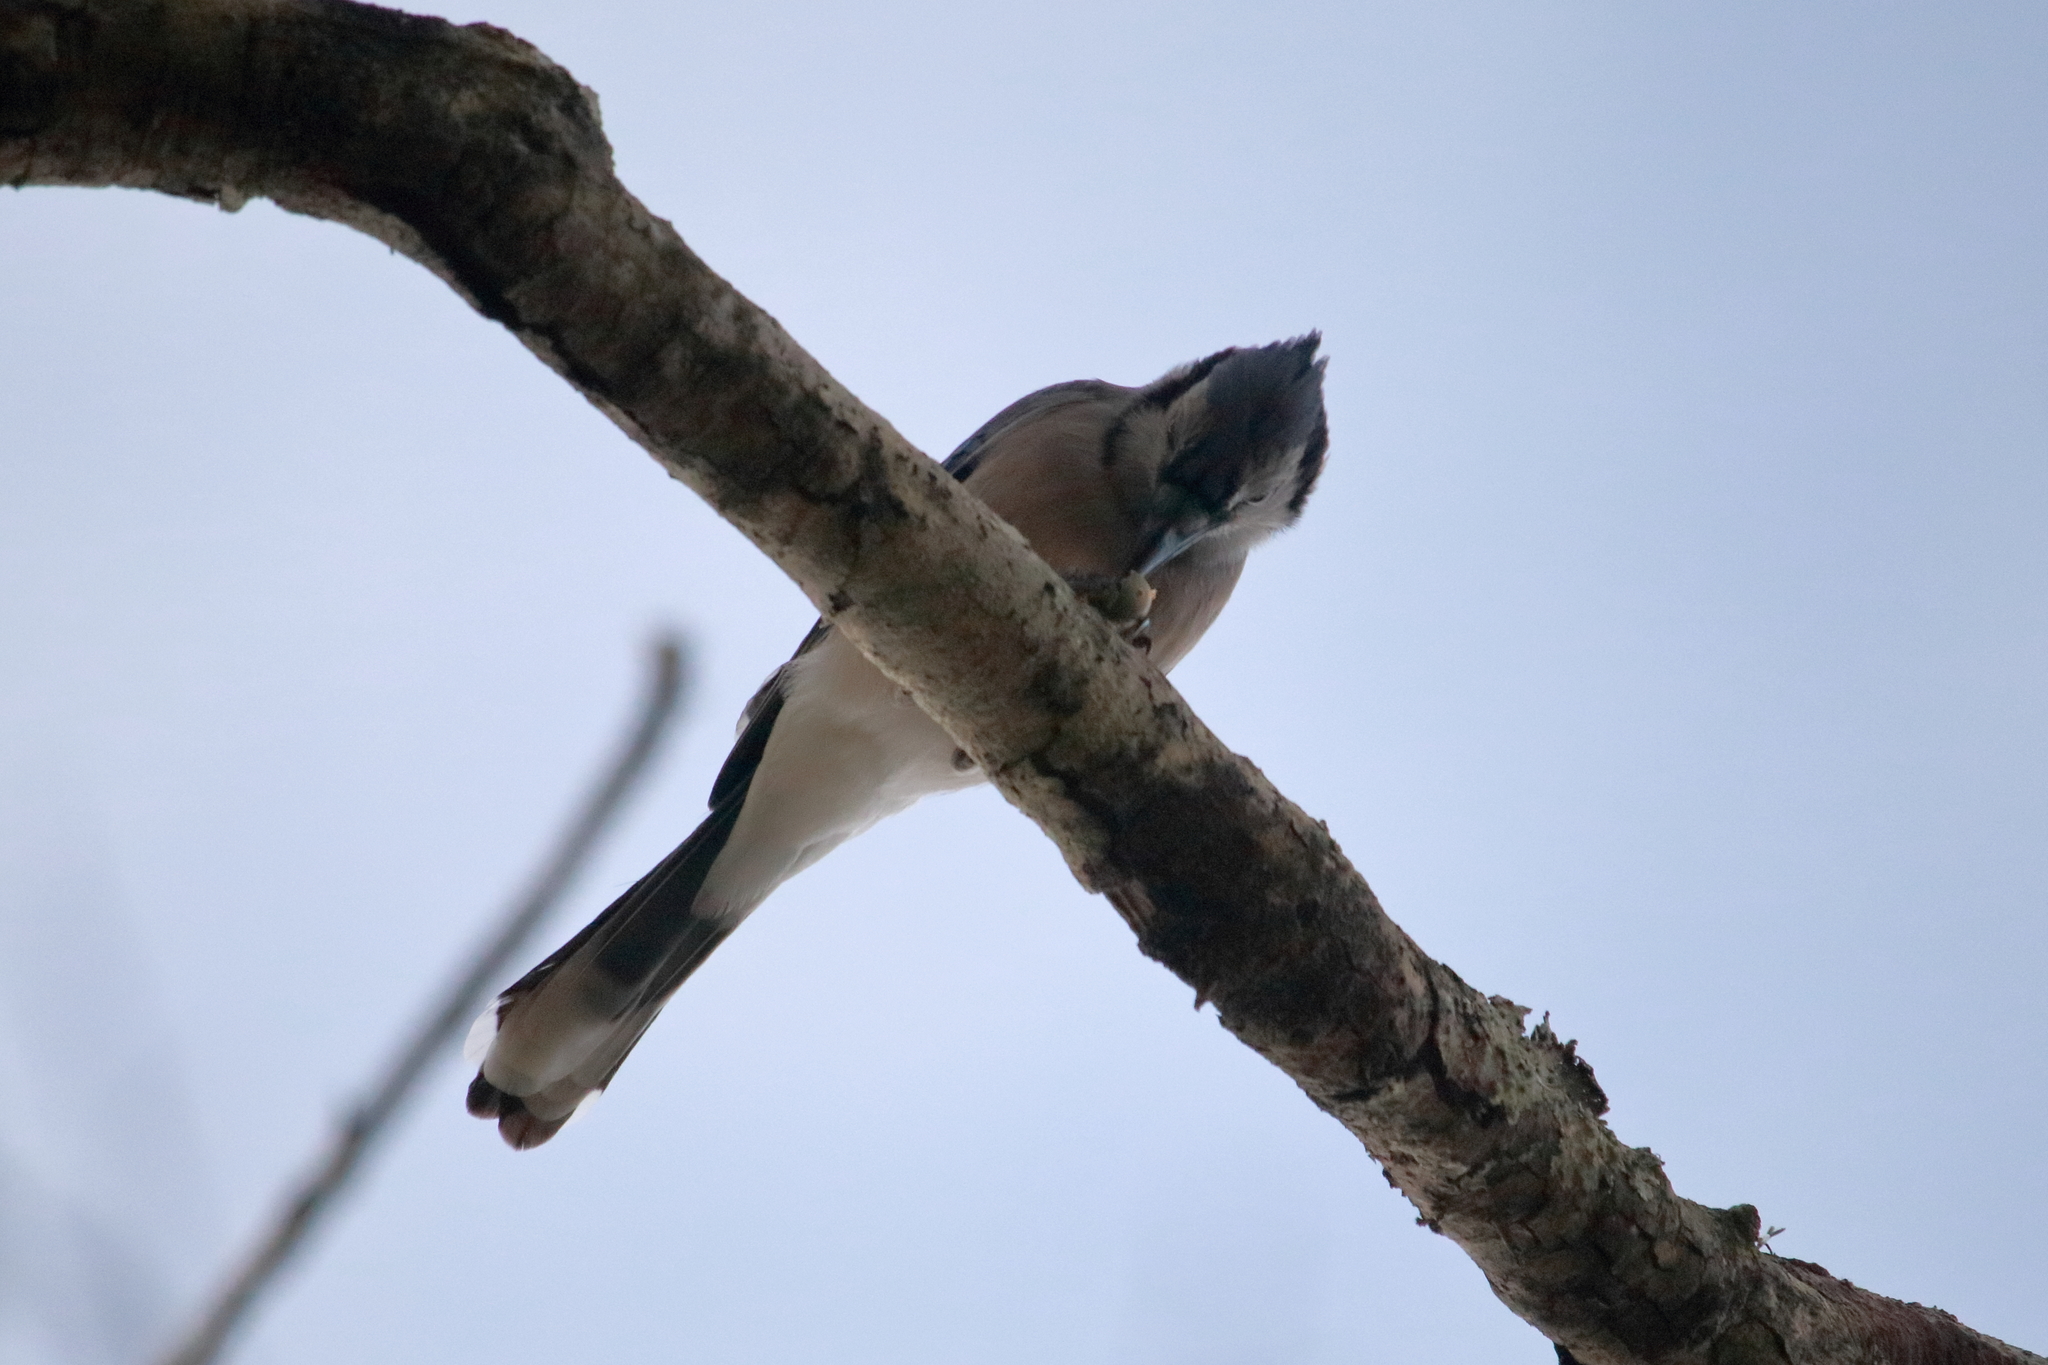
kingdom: Animalia
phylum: Chordata
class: Aves
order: Passeriformes
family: Corvidae
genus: Cyanocitta
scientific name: Cyanocitta cristata
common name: Blue jay
